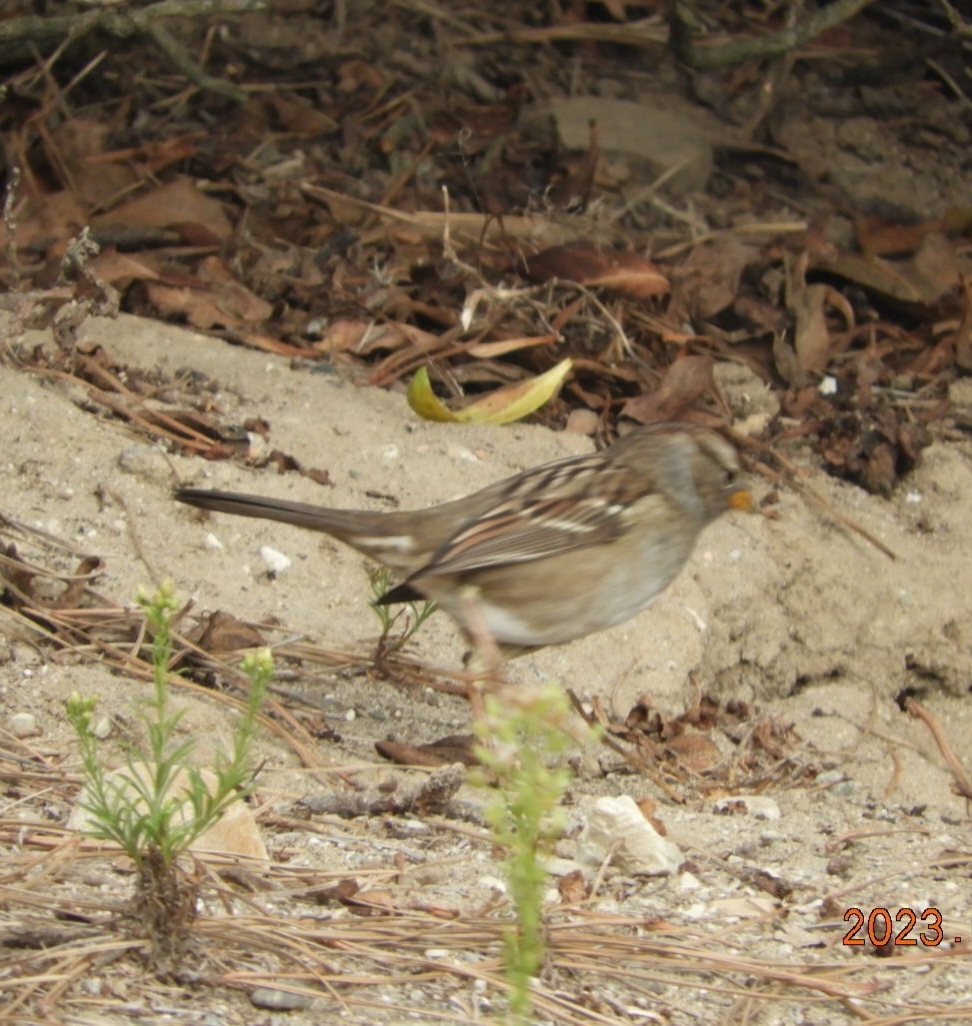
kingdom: Animalia
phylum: Chordata
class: Aves
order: Passeriformes
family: Passerellidae
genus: Zonotrichia
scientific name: Zonotrichia leucophrys
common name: White-crowned sparrow
